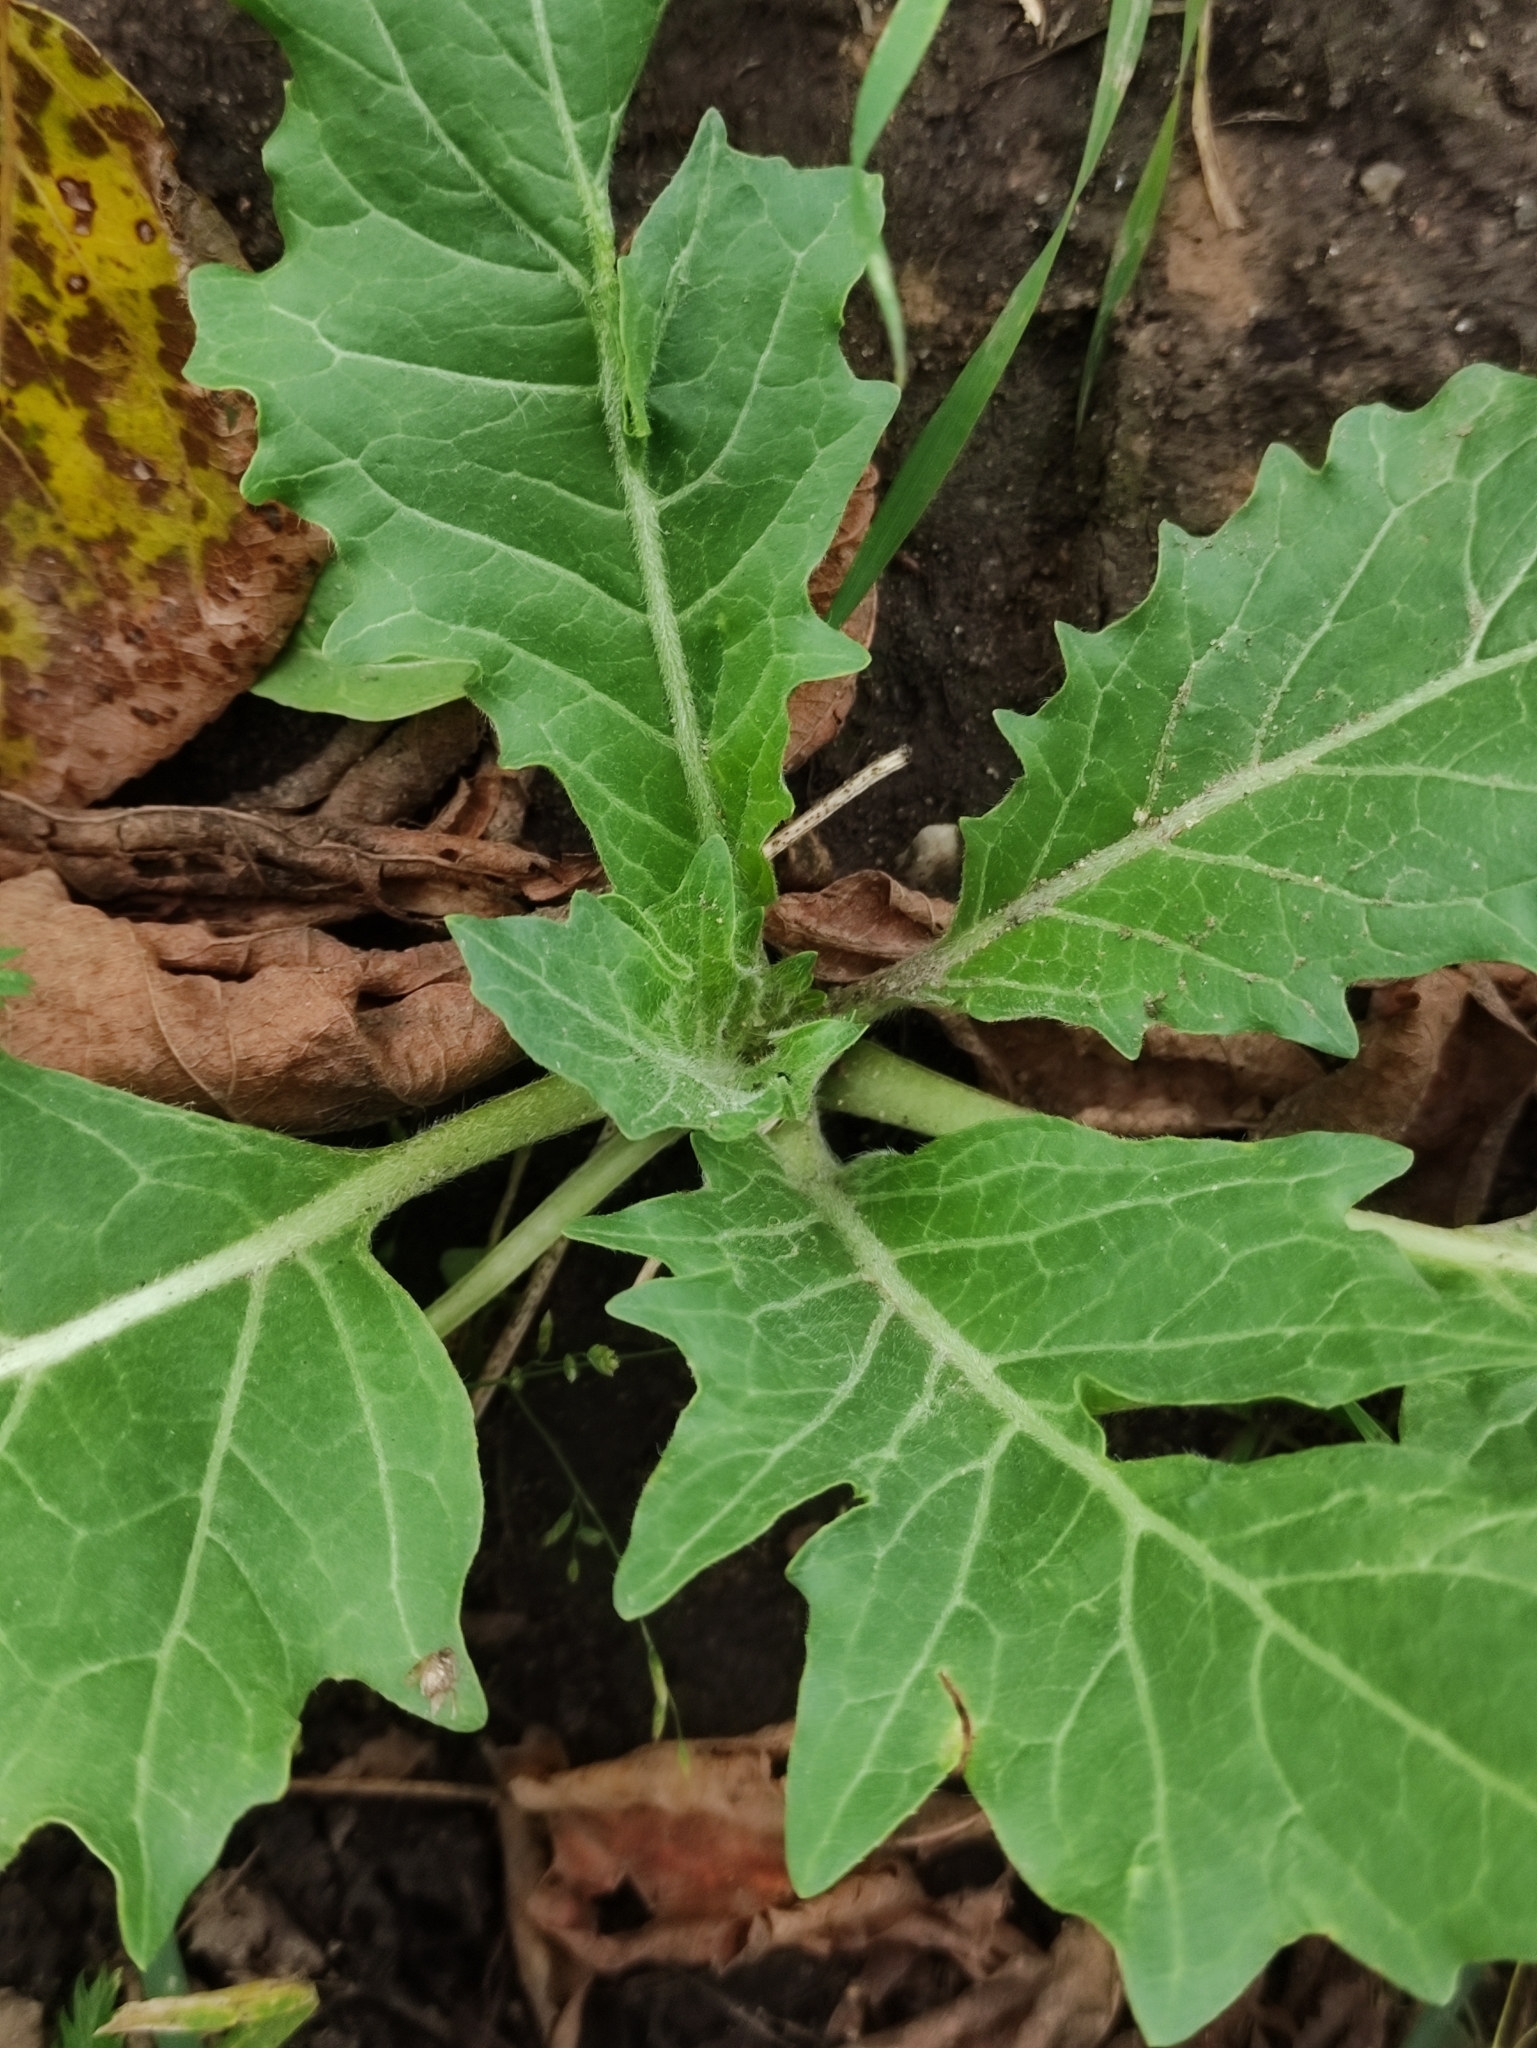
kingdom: Plantae
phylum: Tracheophyta
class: Magnoliopsida
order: Solanales
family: Solanaceae
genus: Hyoscyamus
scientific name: Hyoscyamus niger
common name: Henbane
